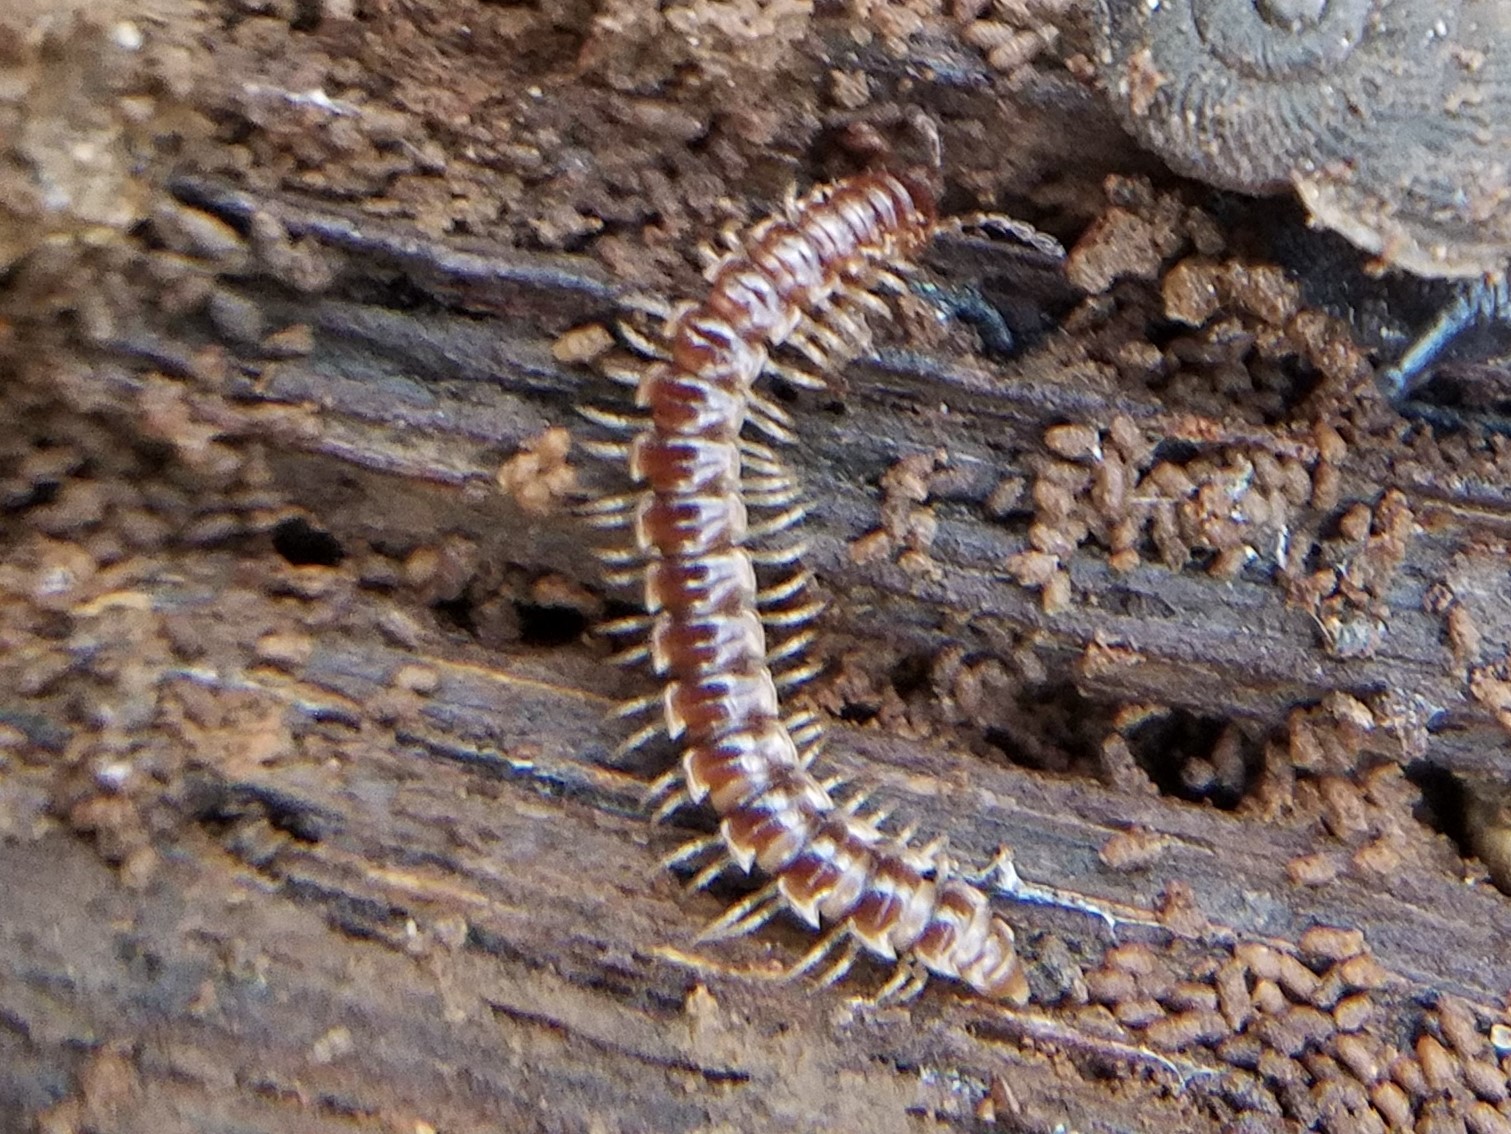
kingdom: Animalia
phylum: Arthropoda
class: Diplopoda
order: Polydesmida
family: Paradoxosomatidae
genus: Oxidus
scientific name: Oxidus gracilis
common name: Greenhouse millipede
